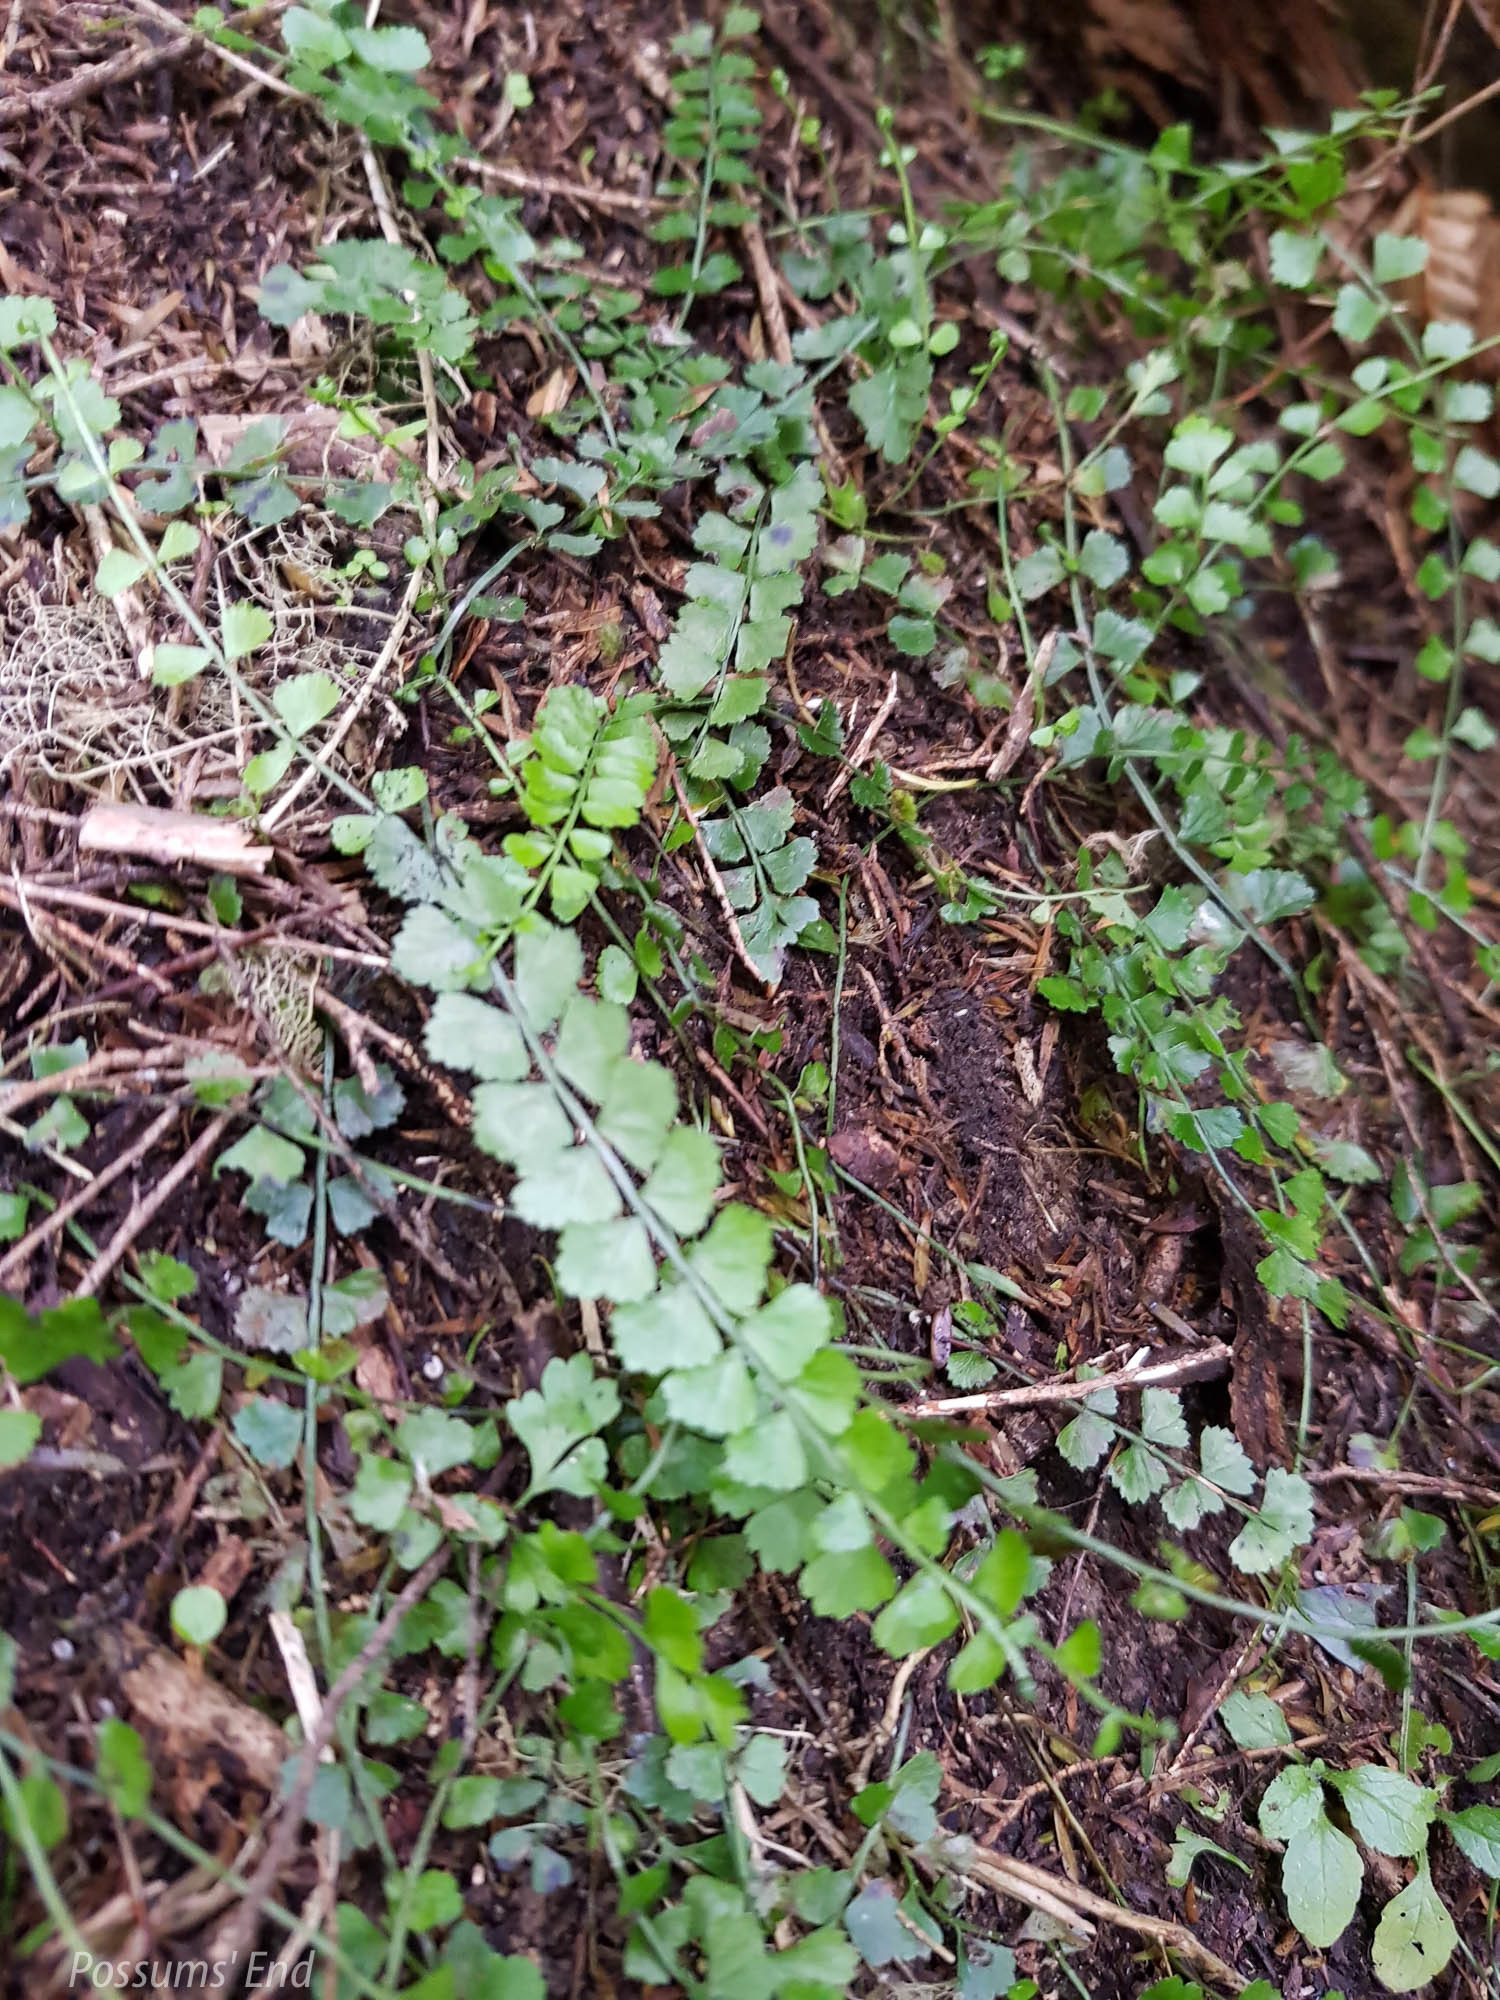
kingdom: Plantae
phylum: Tracheophyta
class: Polypodiopsida
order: Polypodiales
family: Aspleniaceae
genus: Asplenium
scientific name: Asplenium flabellifolium
